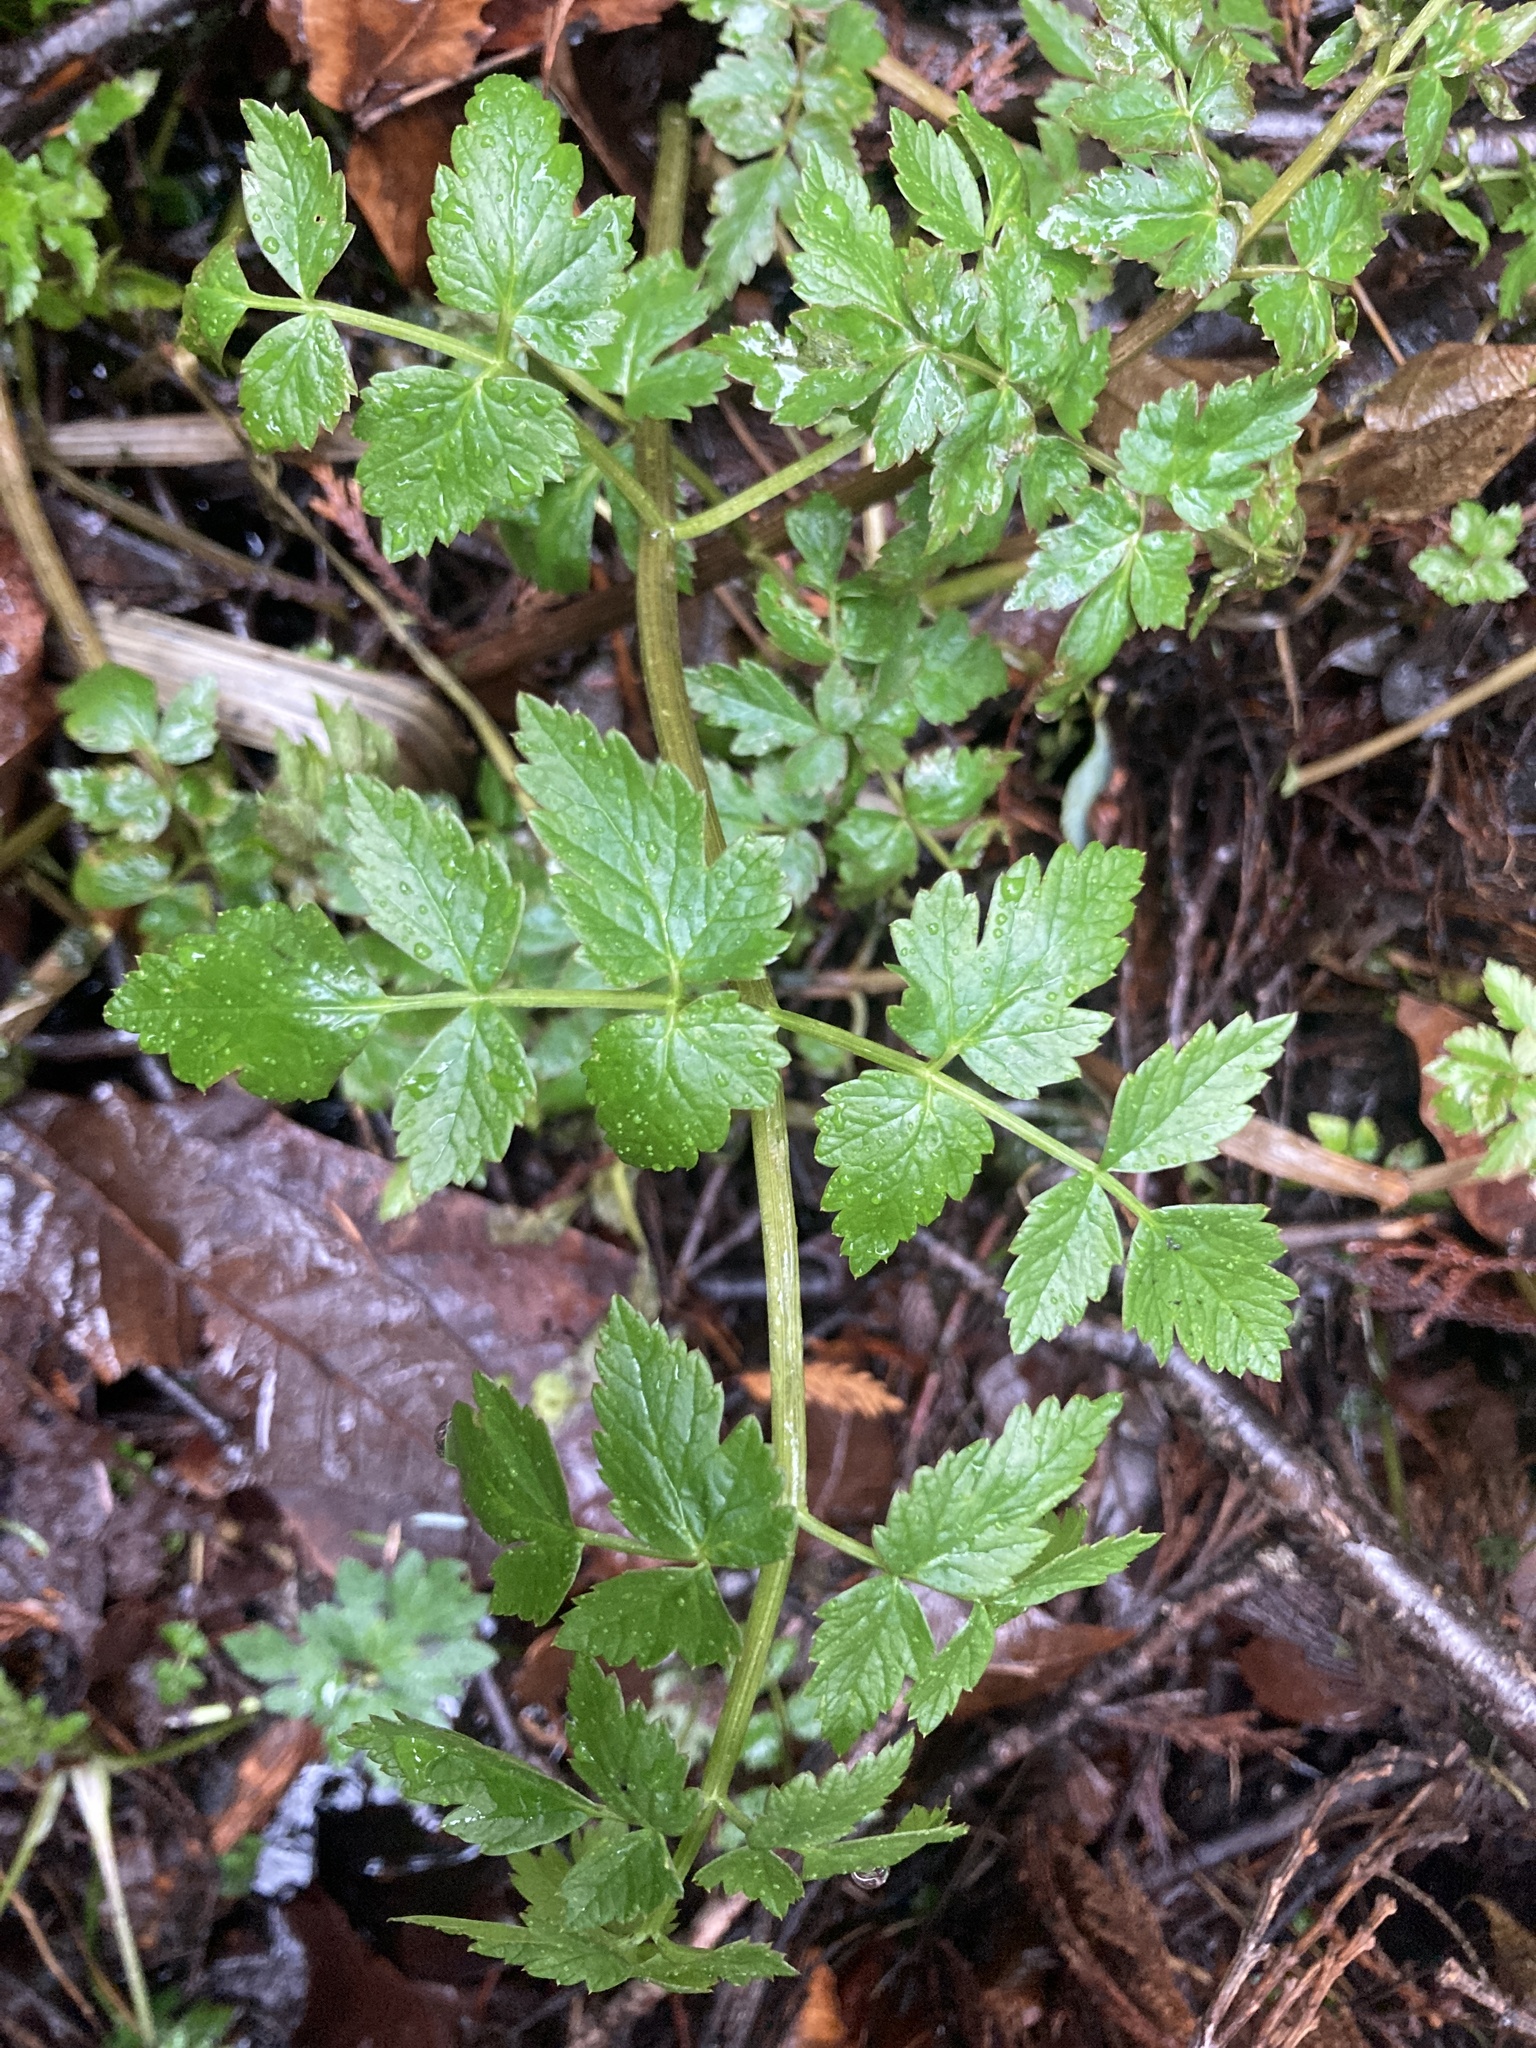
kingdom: Plantae
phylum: Tracheophyta
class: Magnoliopsida
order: Apiales
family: Apiaceae
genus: Oenanthe
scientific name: Oenanthe sarmentosa
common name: American water-parsley
